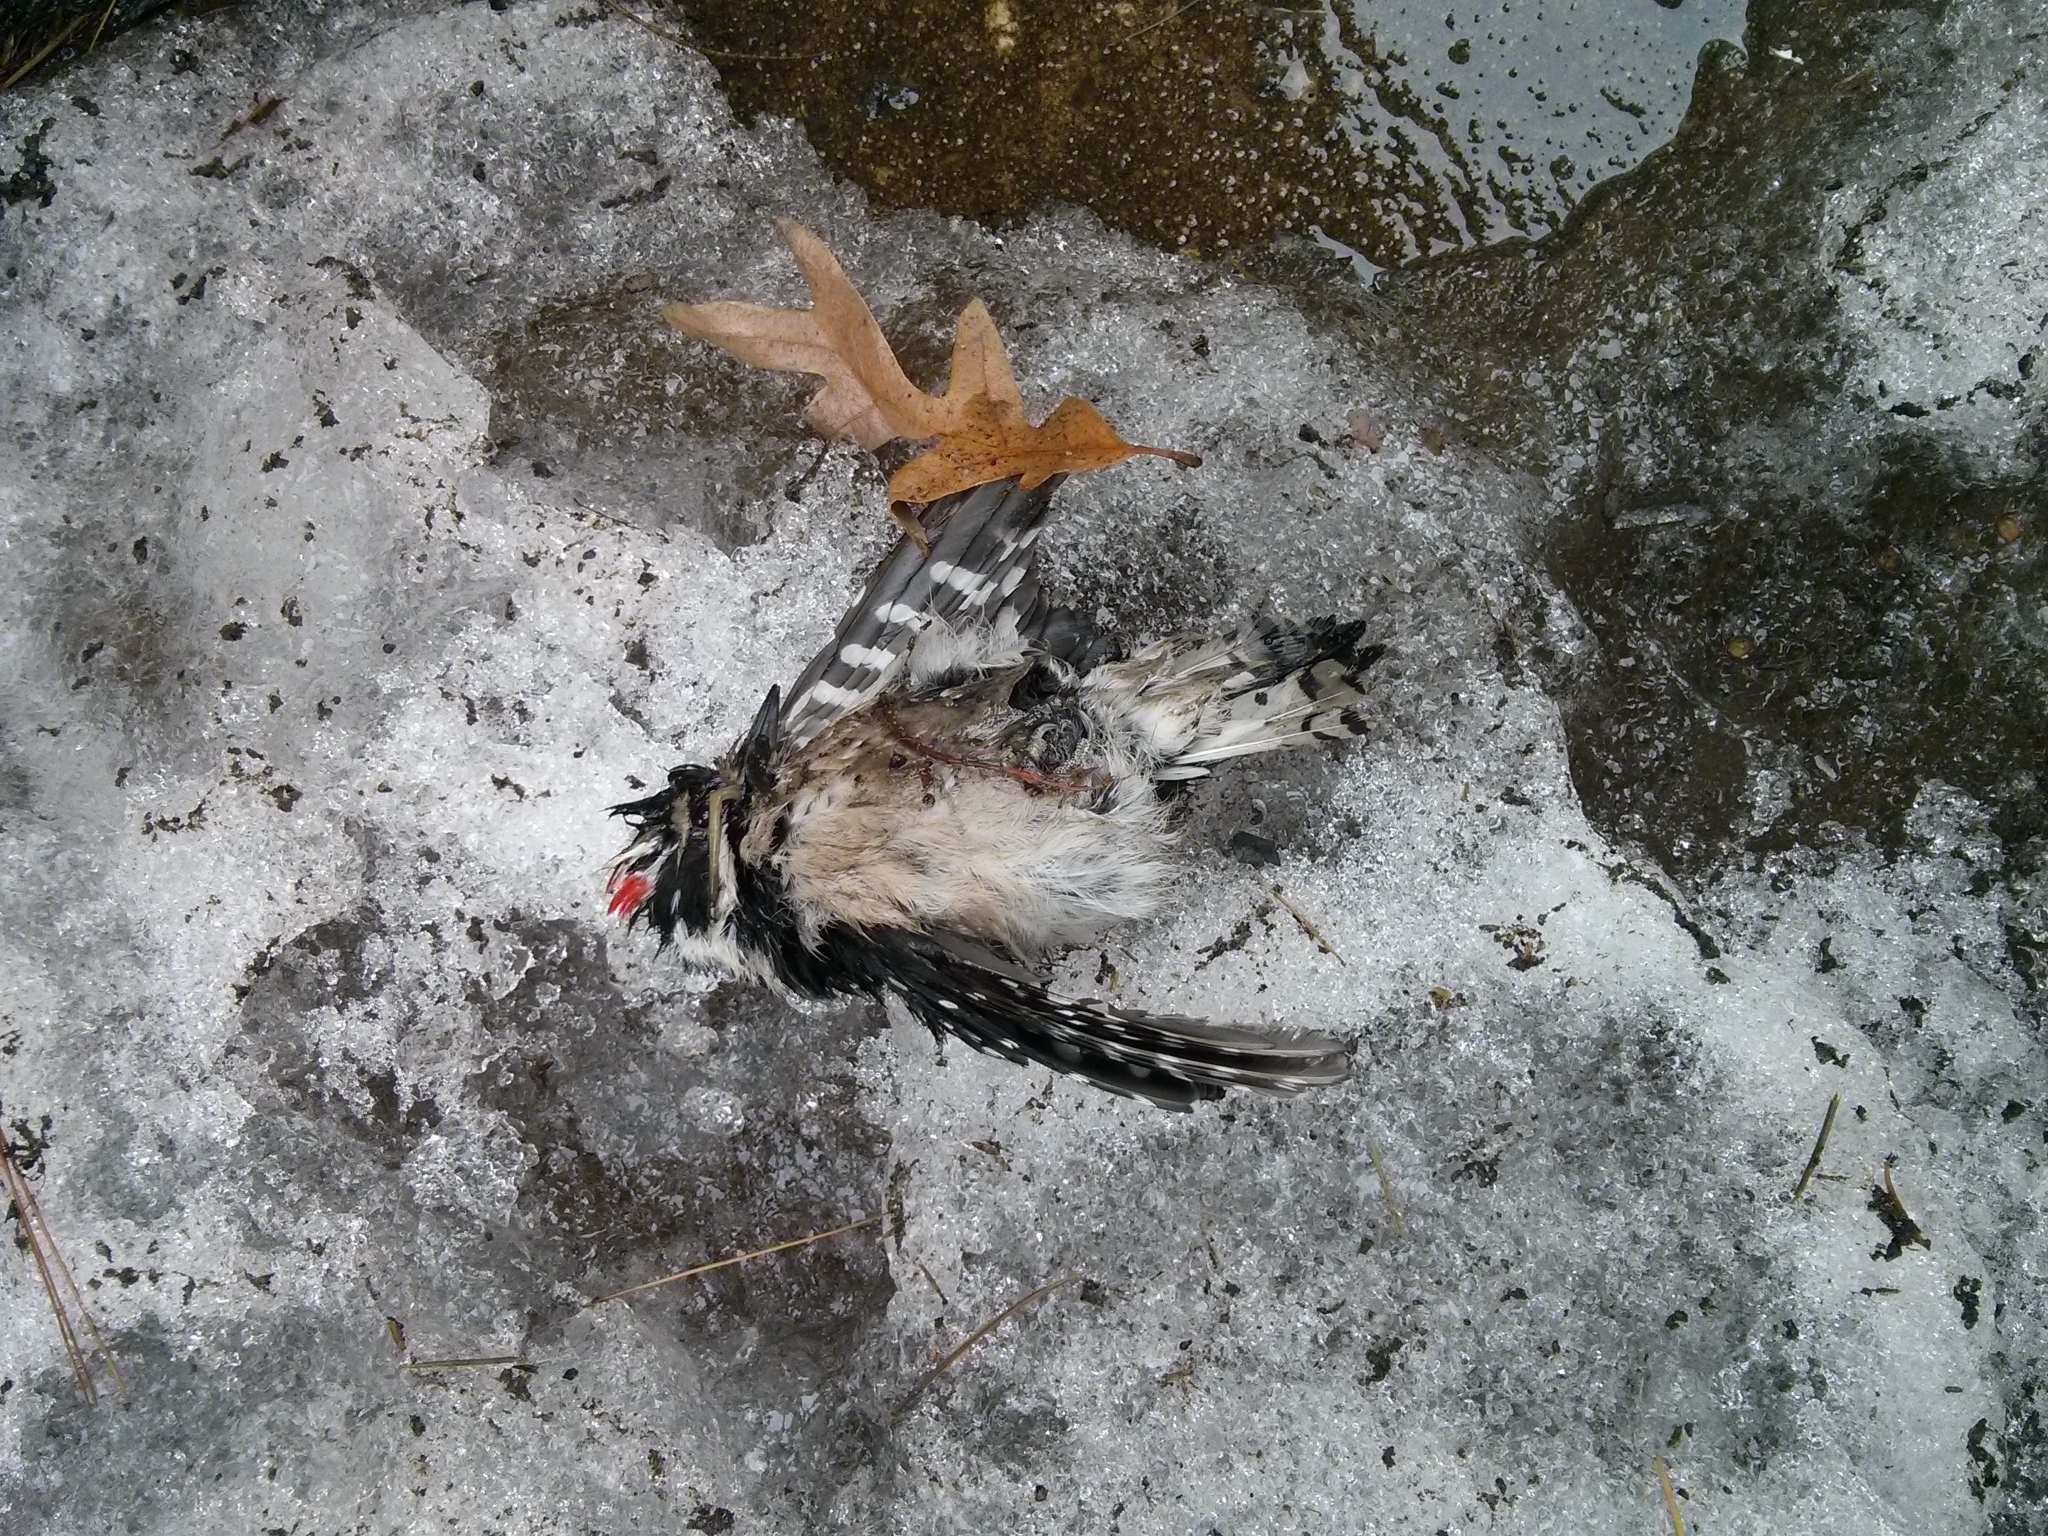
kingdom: Animalia
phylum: Chordata
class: Aves
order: Piciformes
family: Picidae
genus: Dryobates
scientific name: Dryobates pubescens
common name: Downy woodpecker
